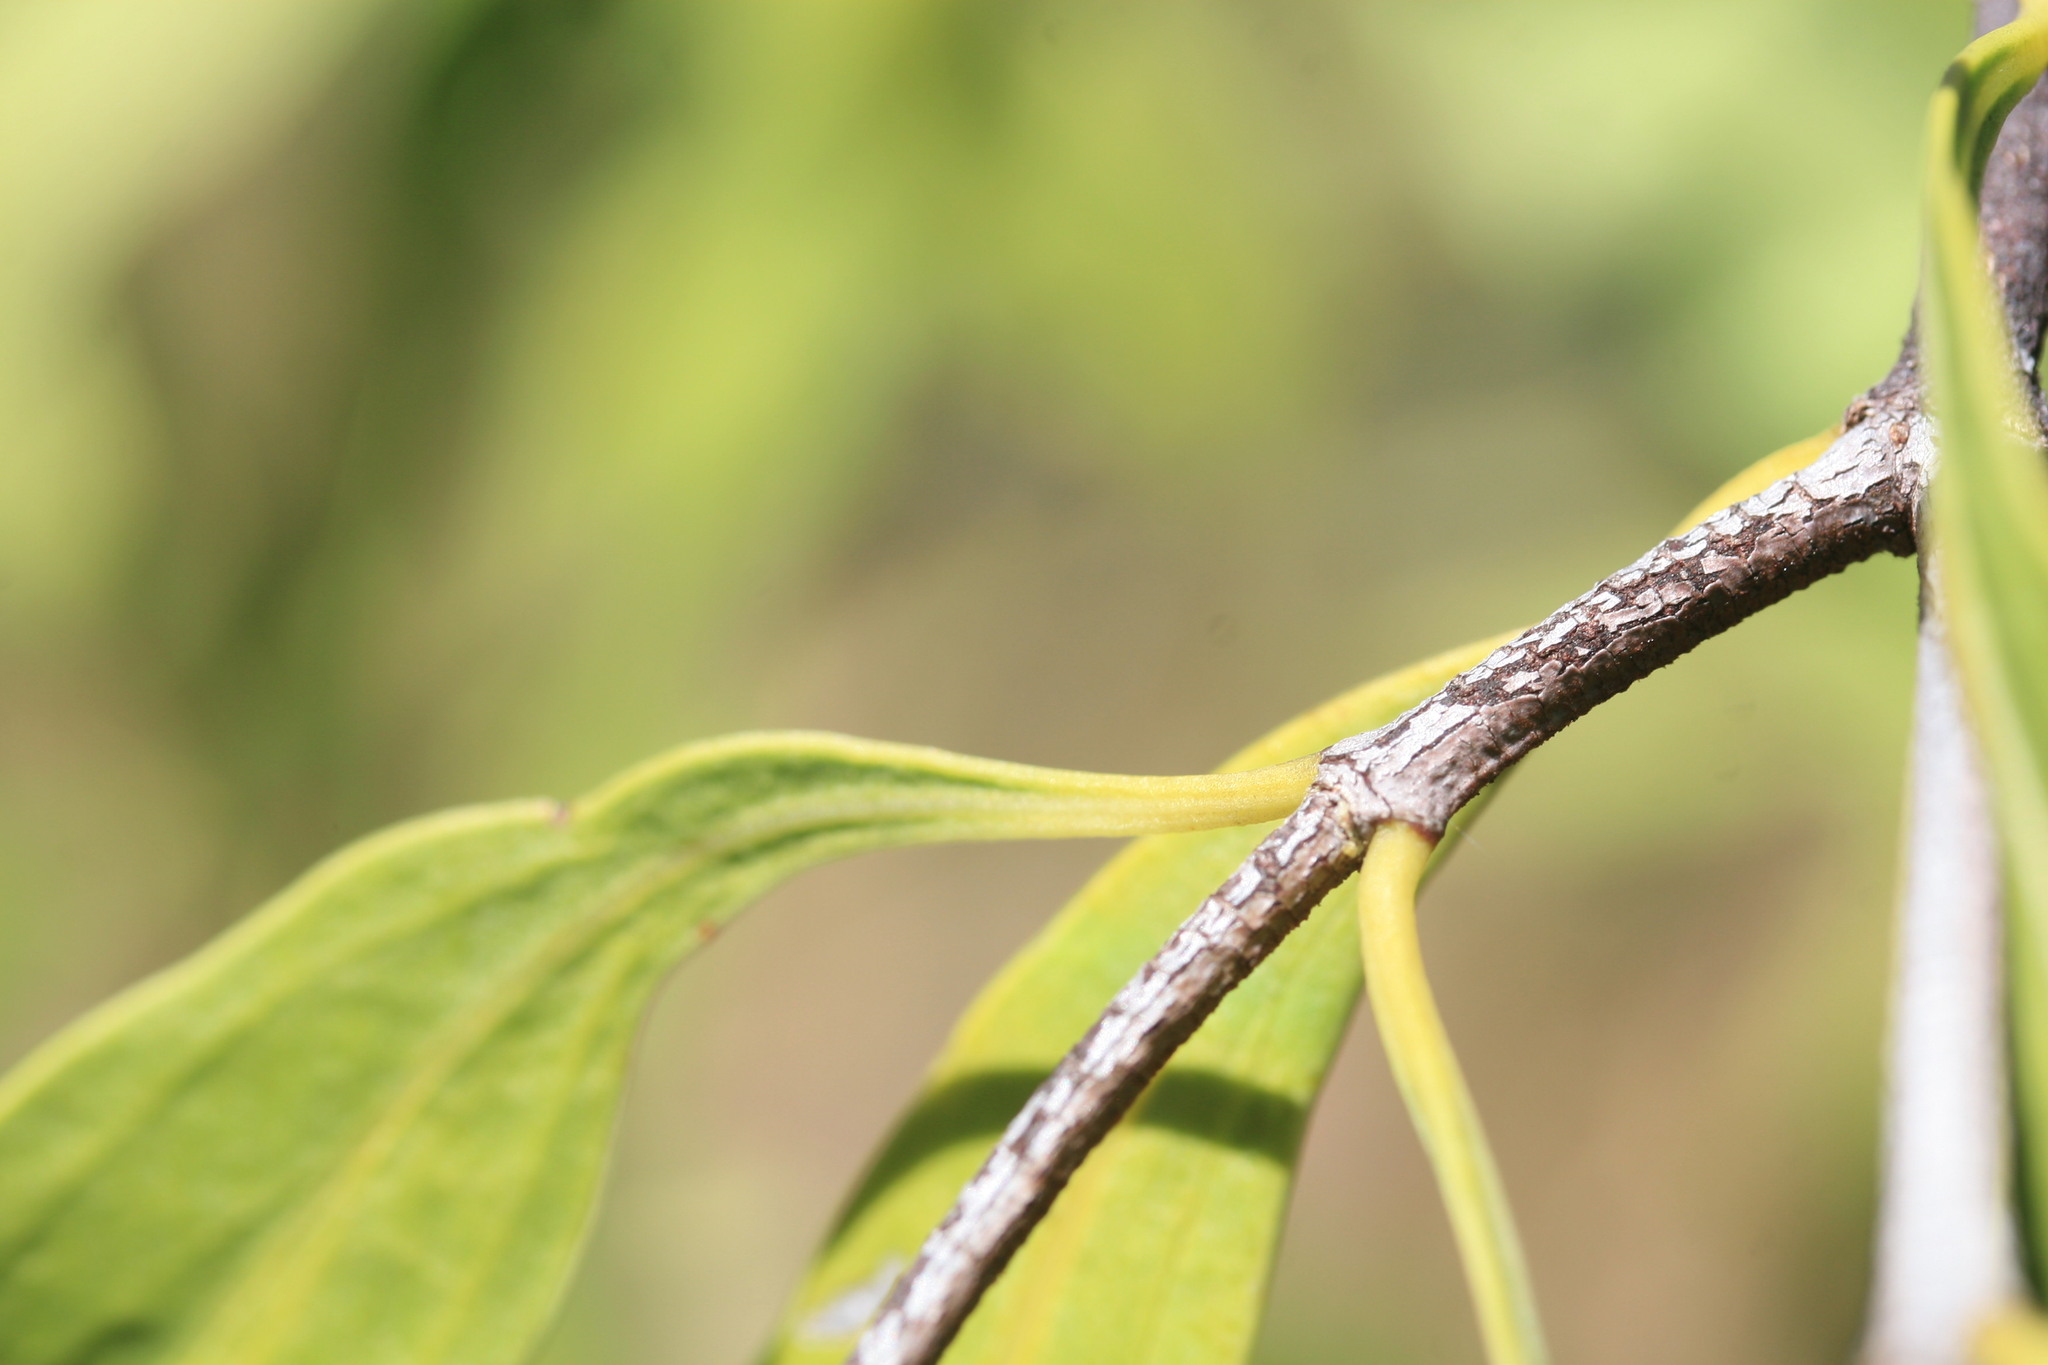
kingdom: Plantae
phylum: Tracheophyta
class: Magnoliopsida
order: Gentianales
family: Rubiaceae
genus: Psydrax
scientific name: Psydrax pendulinus
